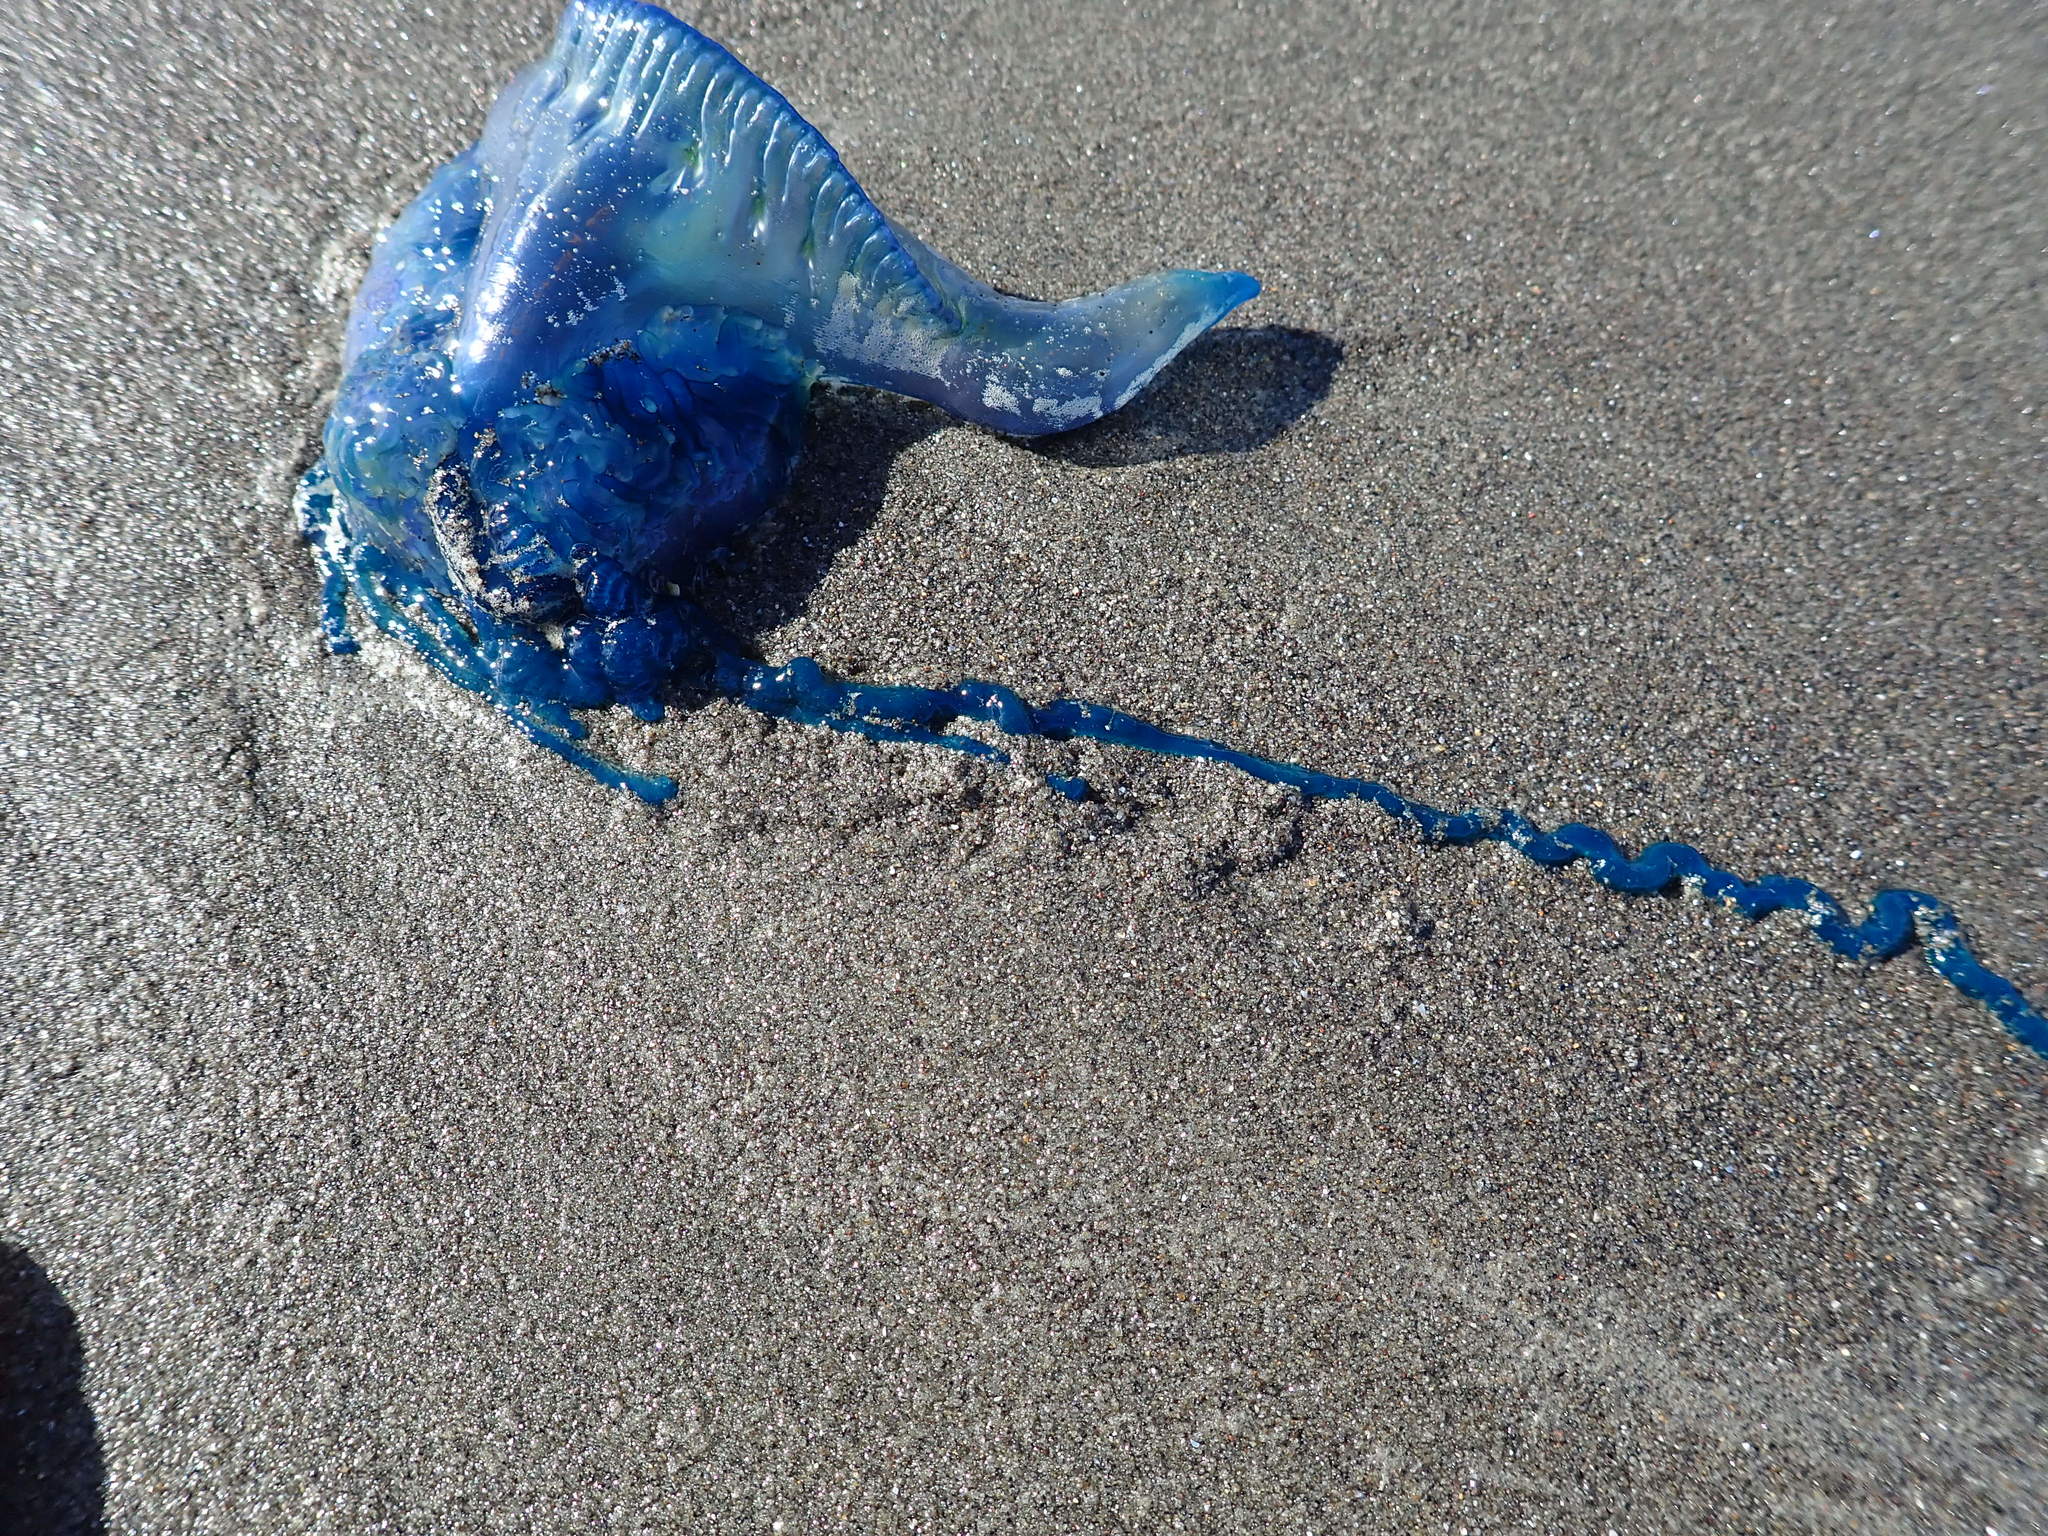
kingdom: Animalia
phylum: Cnidaria
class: Hydrozoa
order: Siphonophorae
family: Physaliidae
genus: Physalia
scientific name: Physalia physalis
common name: Portuguese man-of-war
